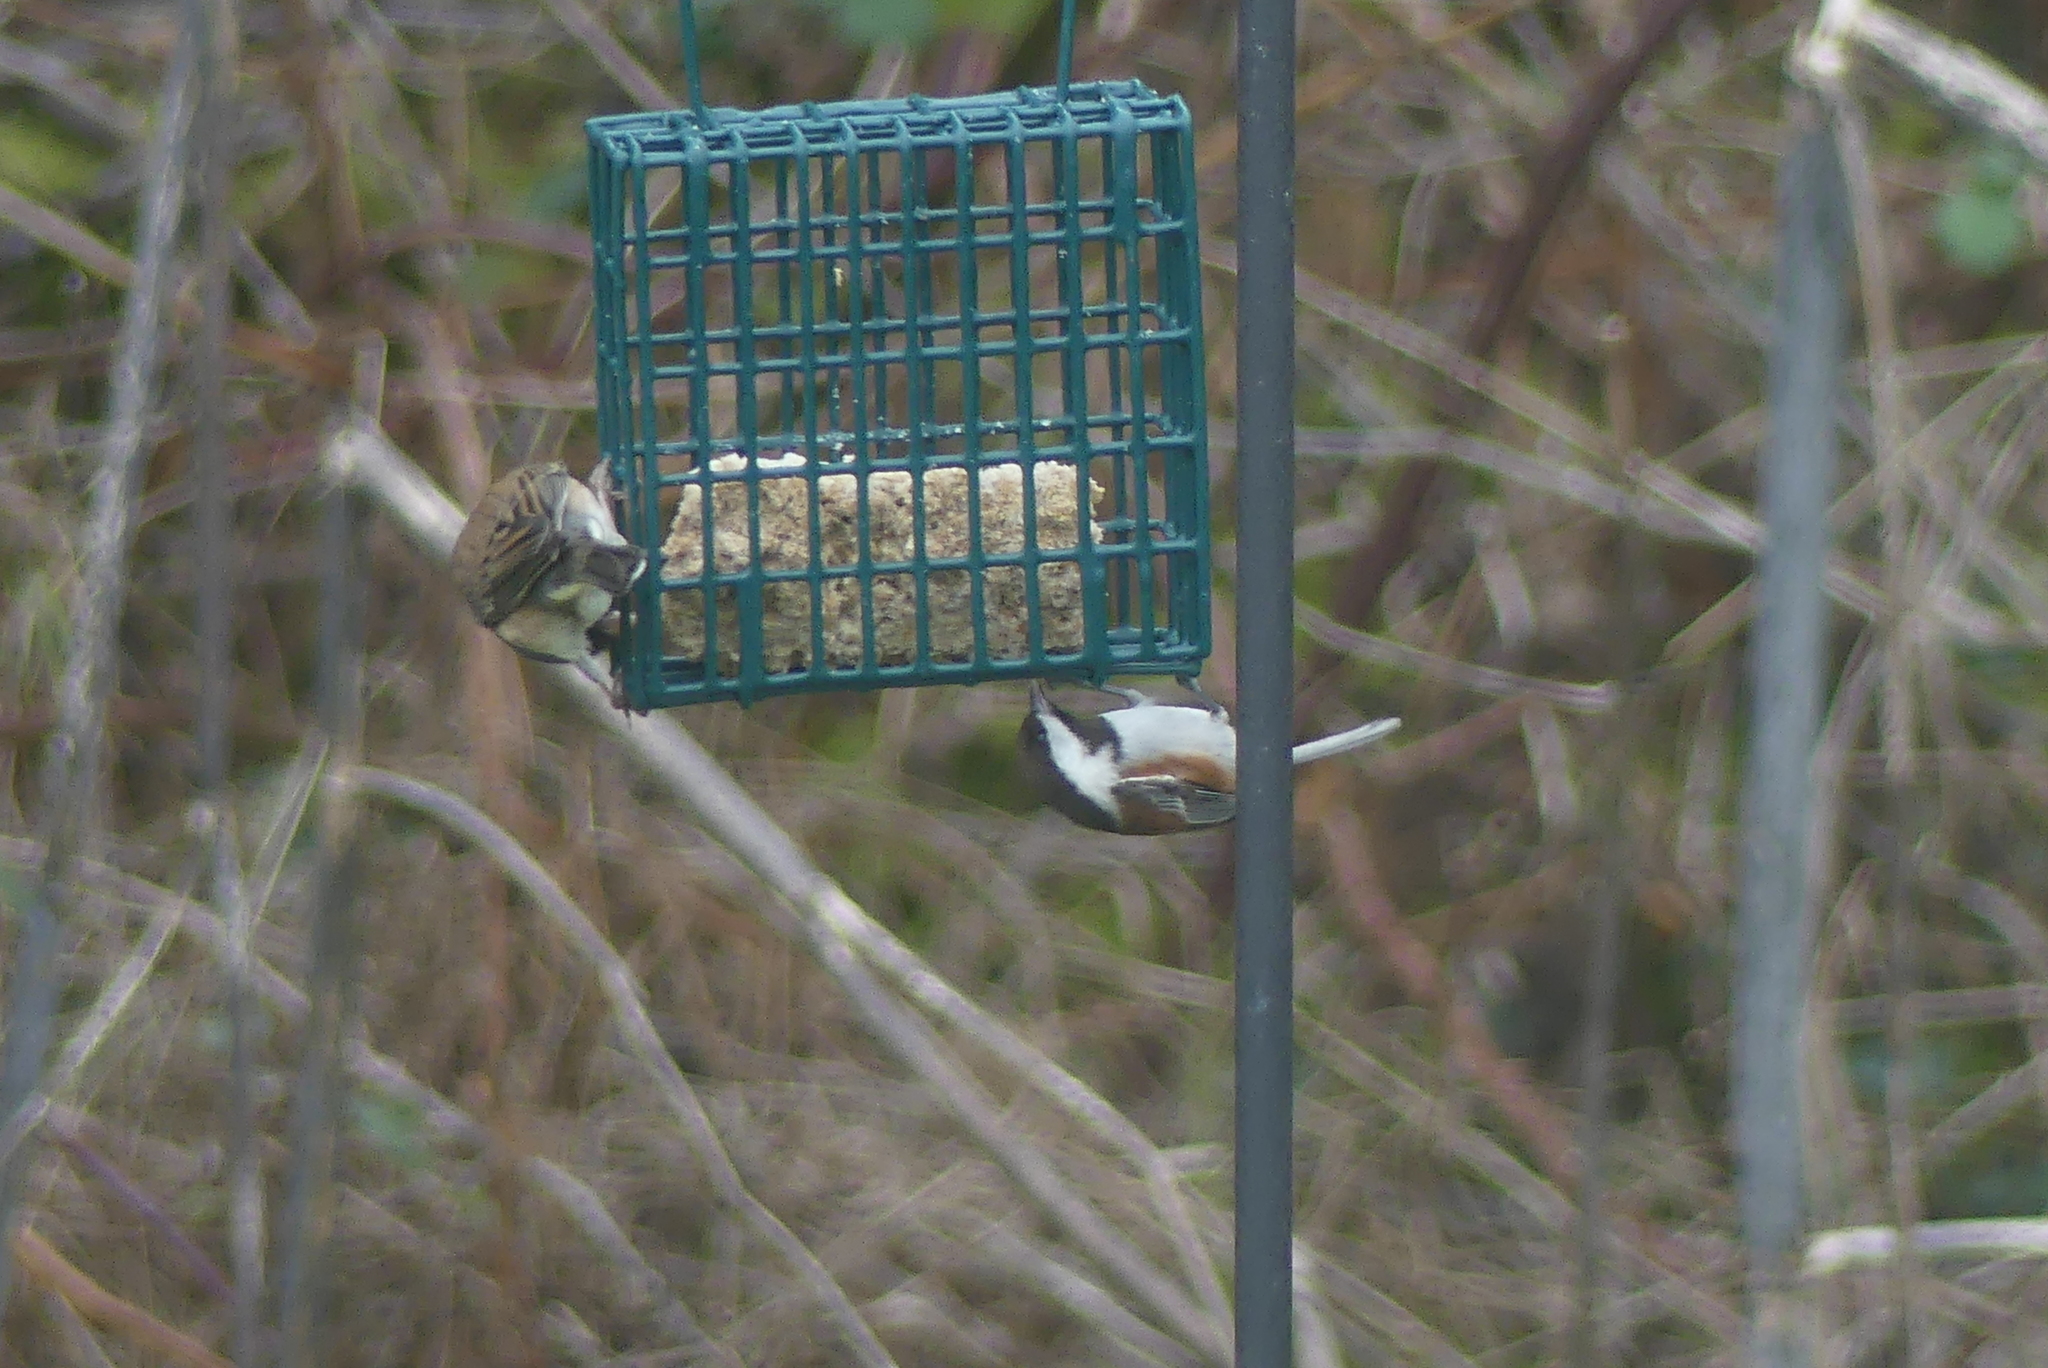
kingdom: Animalia
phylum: Chordata
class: Aves
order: Passeriformes
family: Paridae
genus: Poecile
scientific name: Poecile rufescens
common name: Chestnut-backed chickadee
